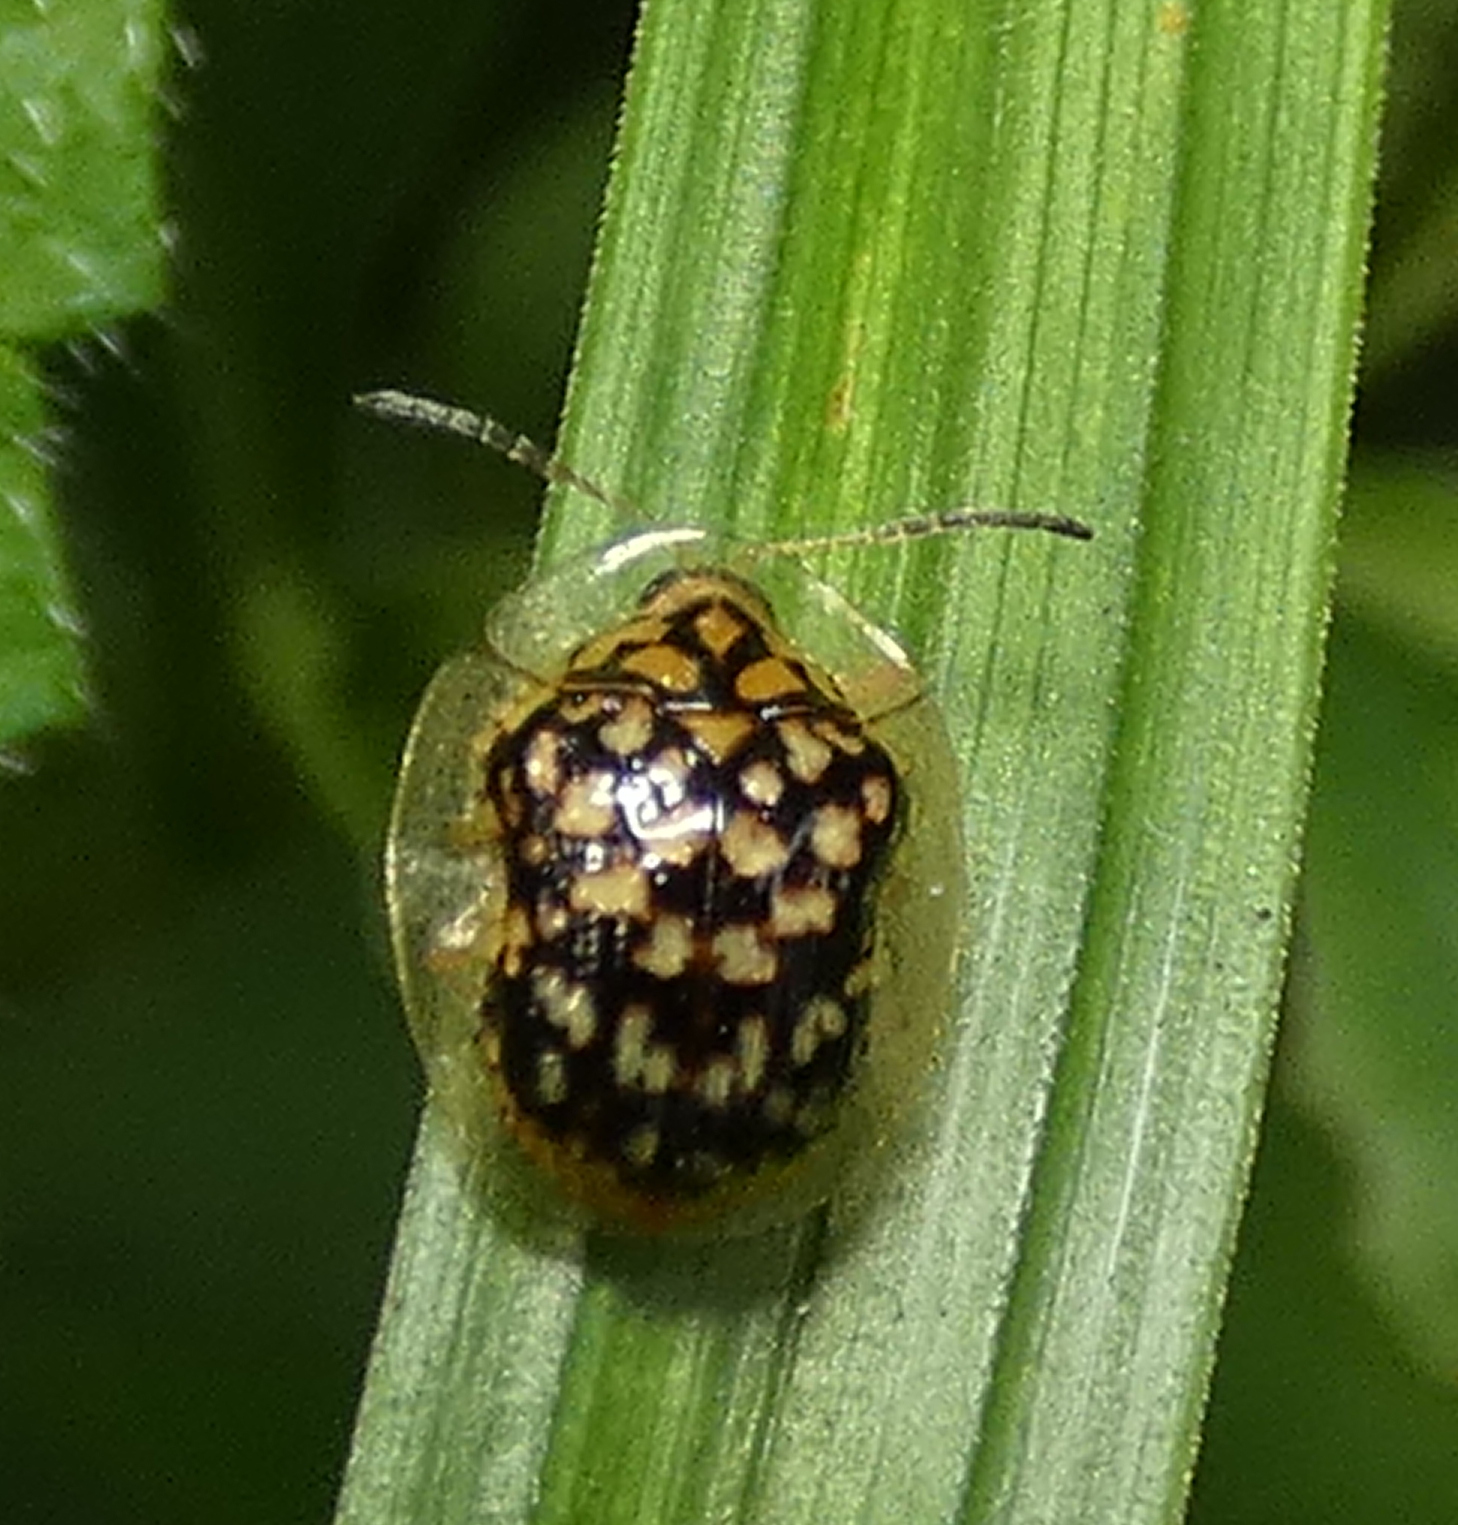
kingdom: Animalia
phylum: Arthropoda
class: Insecta
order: Coleoptera
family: Chrysomelidae
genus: Cteisella
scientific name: Cteisella guttigera
